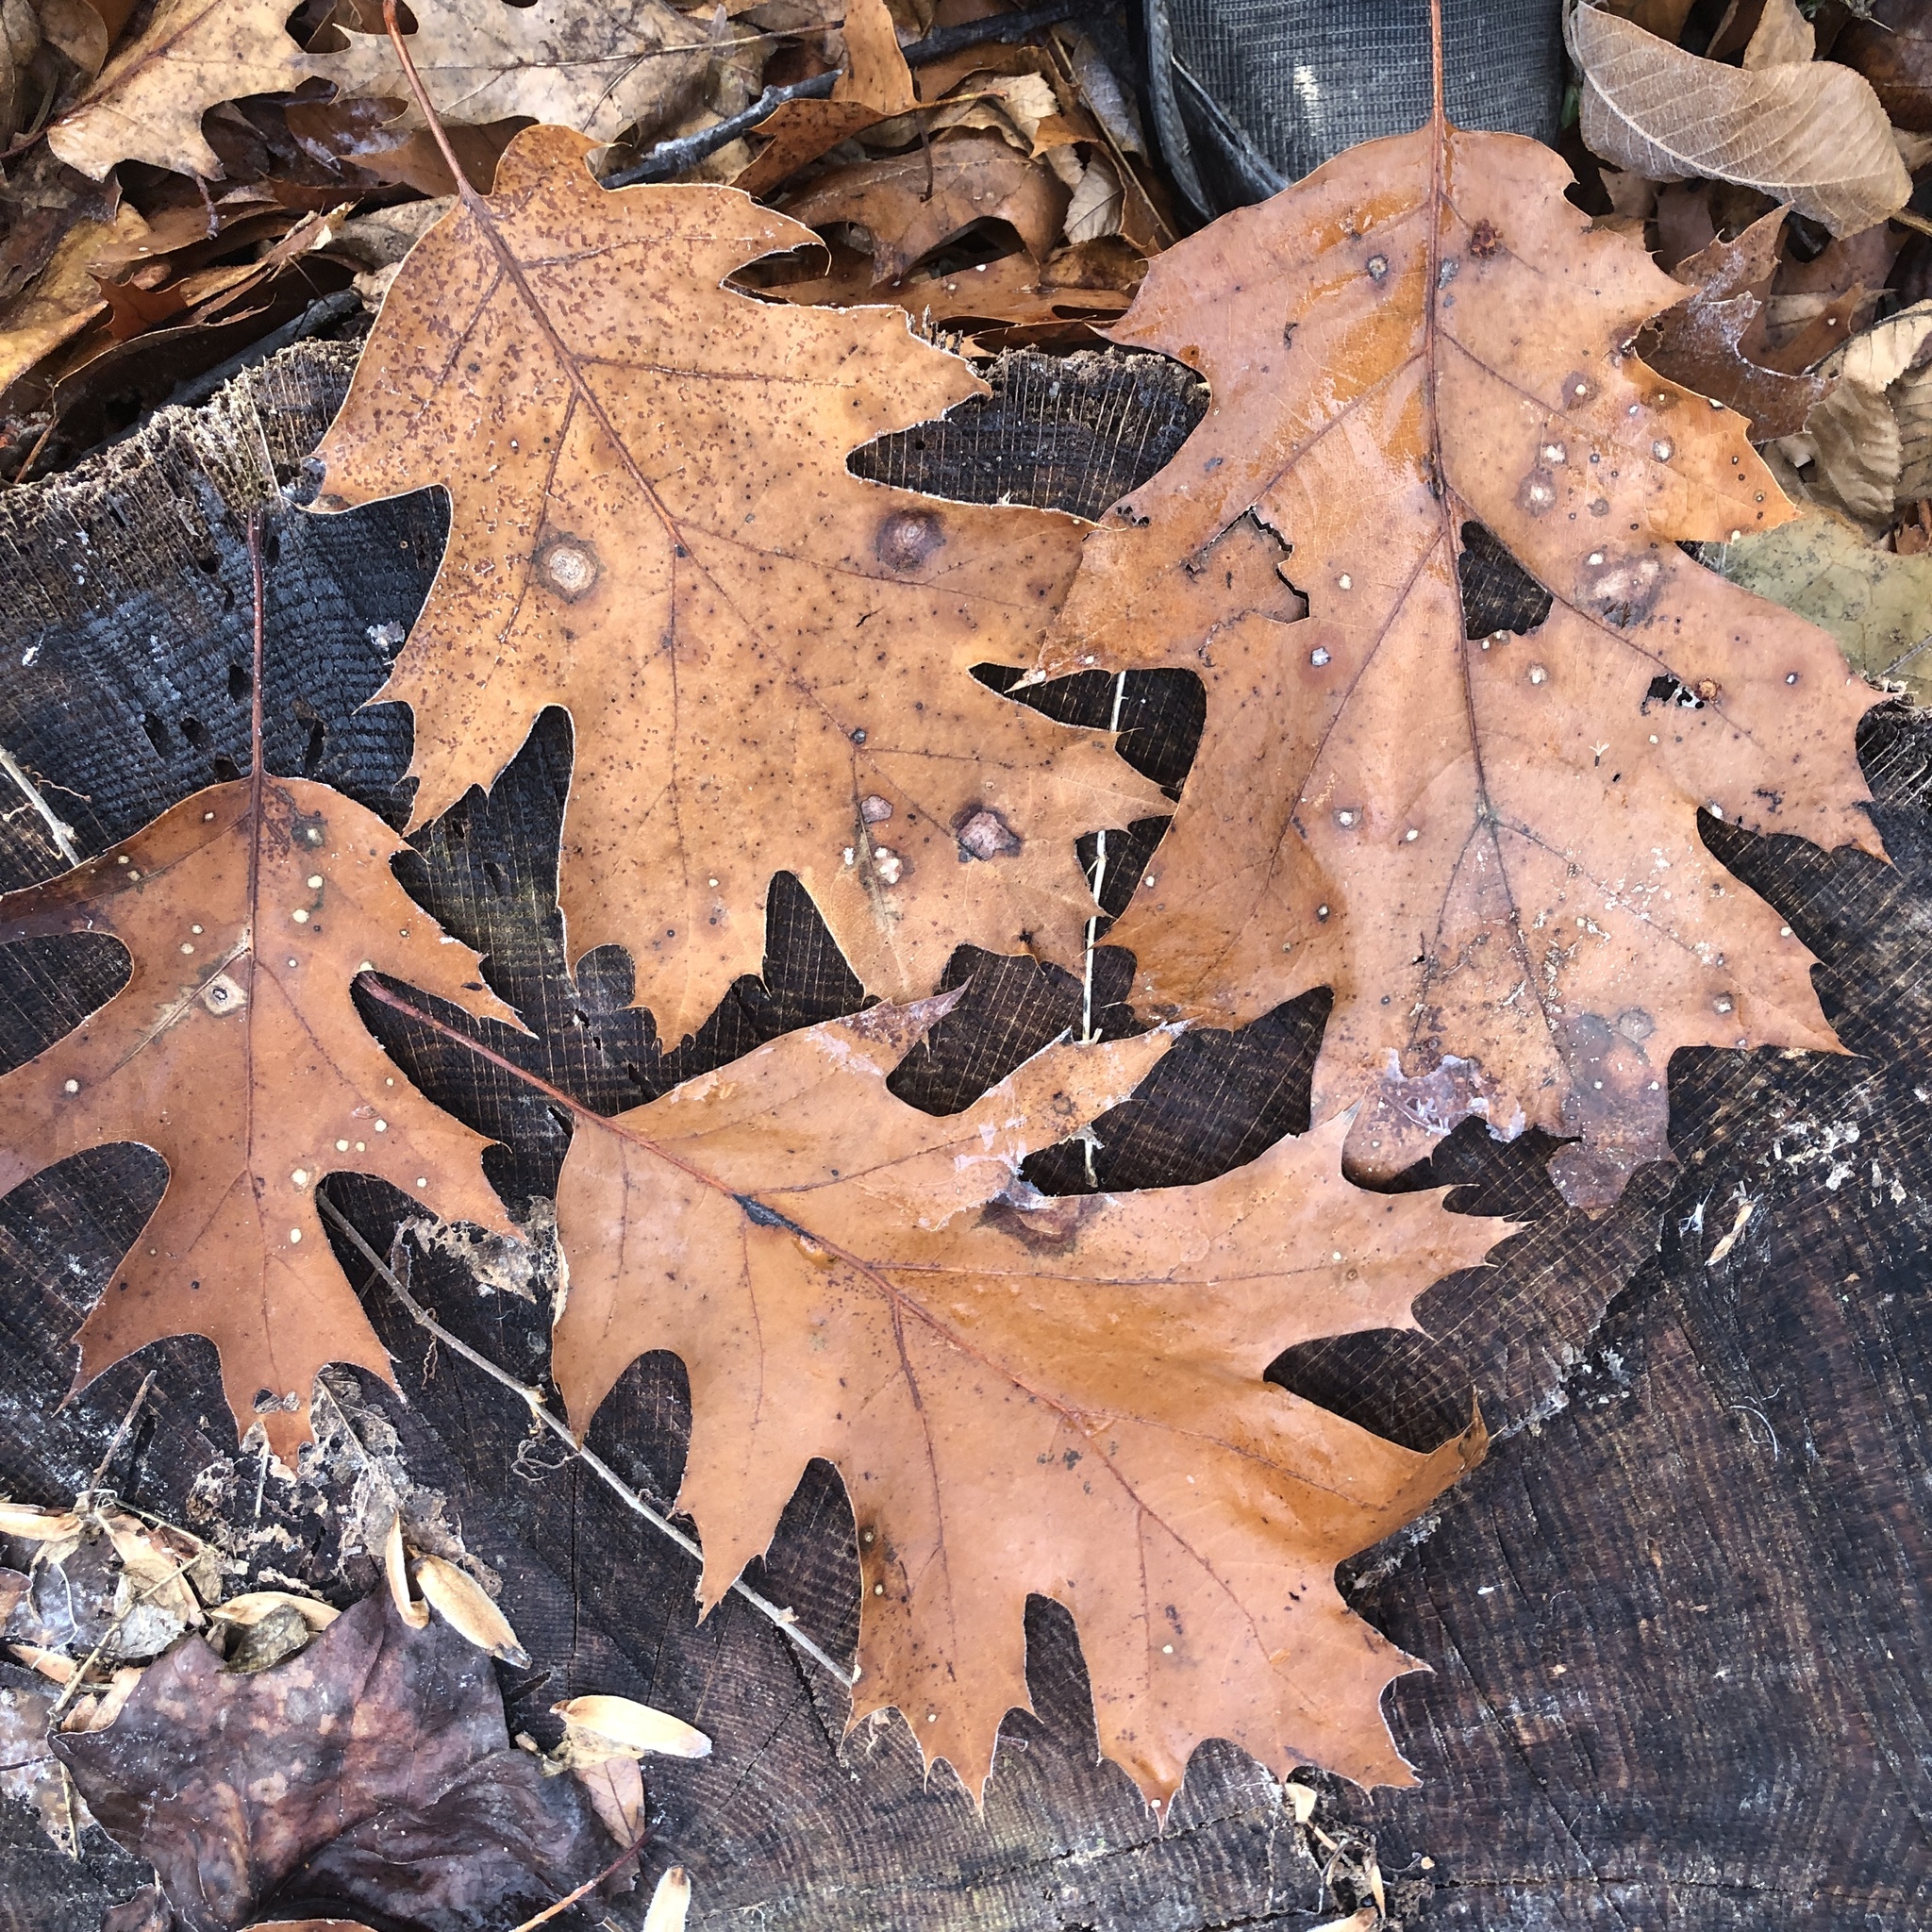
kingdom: Plantae
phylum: Tracheophyta
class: Magnoliopsida
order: Fagales
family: Fagaceae
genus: Quercus
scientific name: Quercus rubra
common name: Red oak
